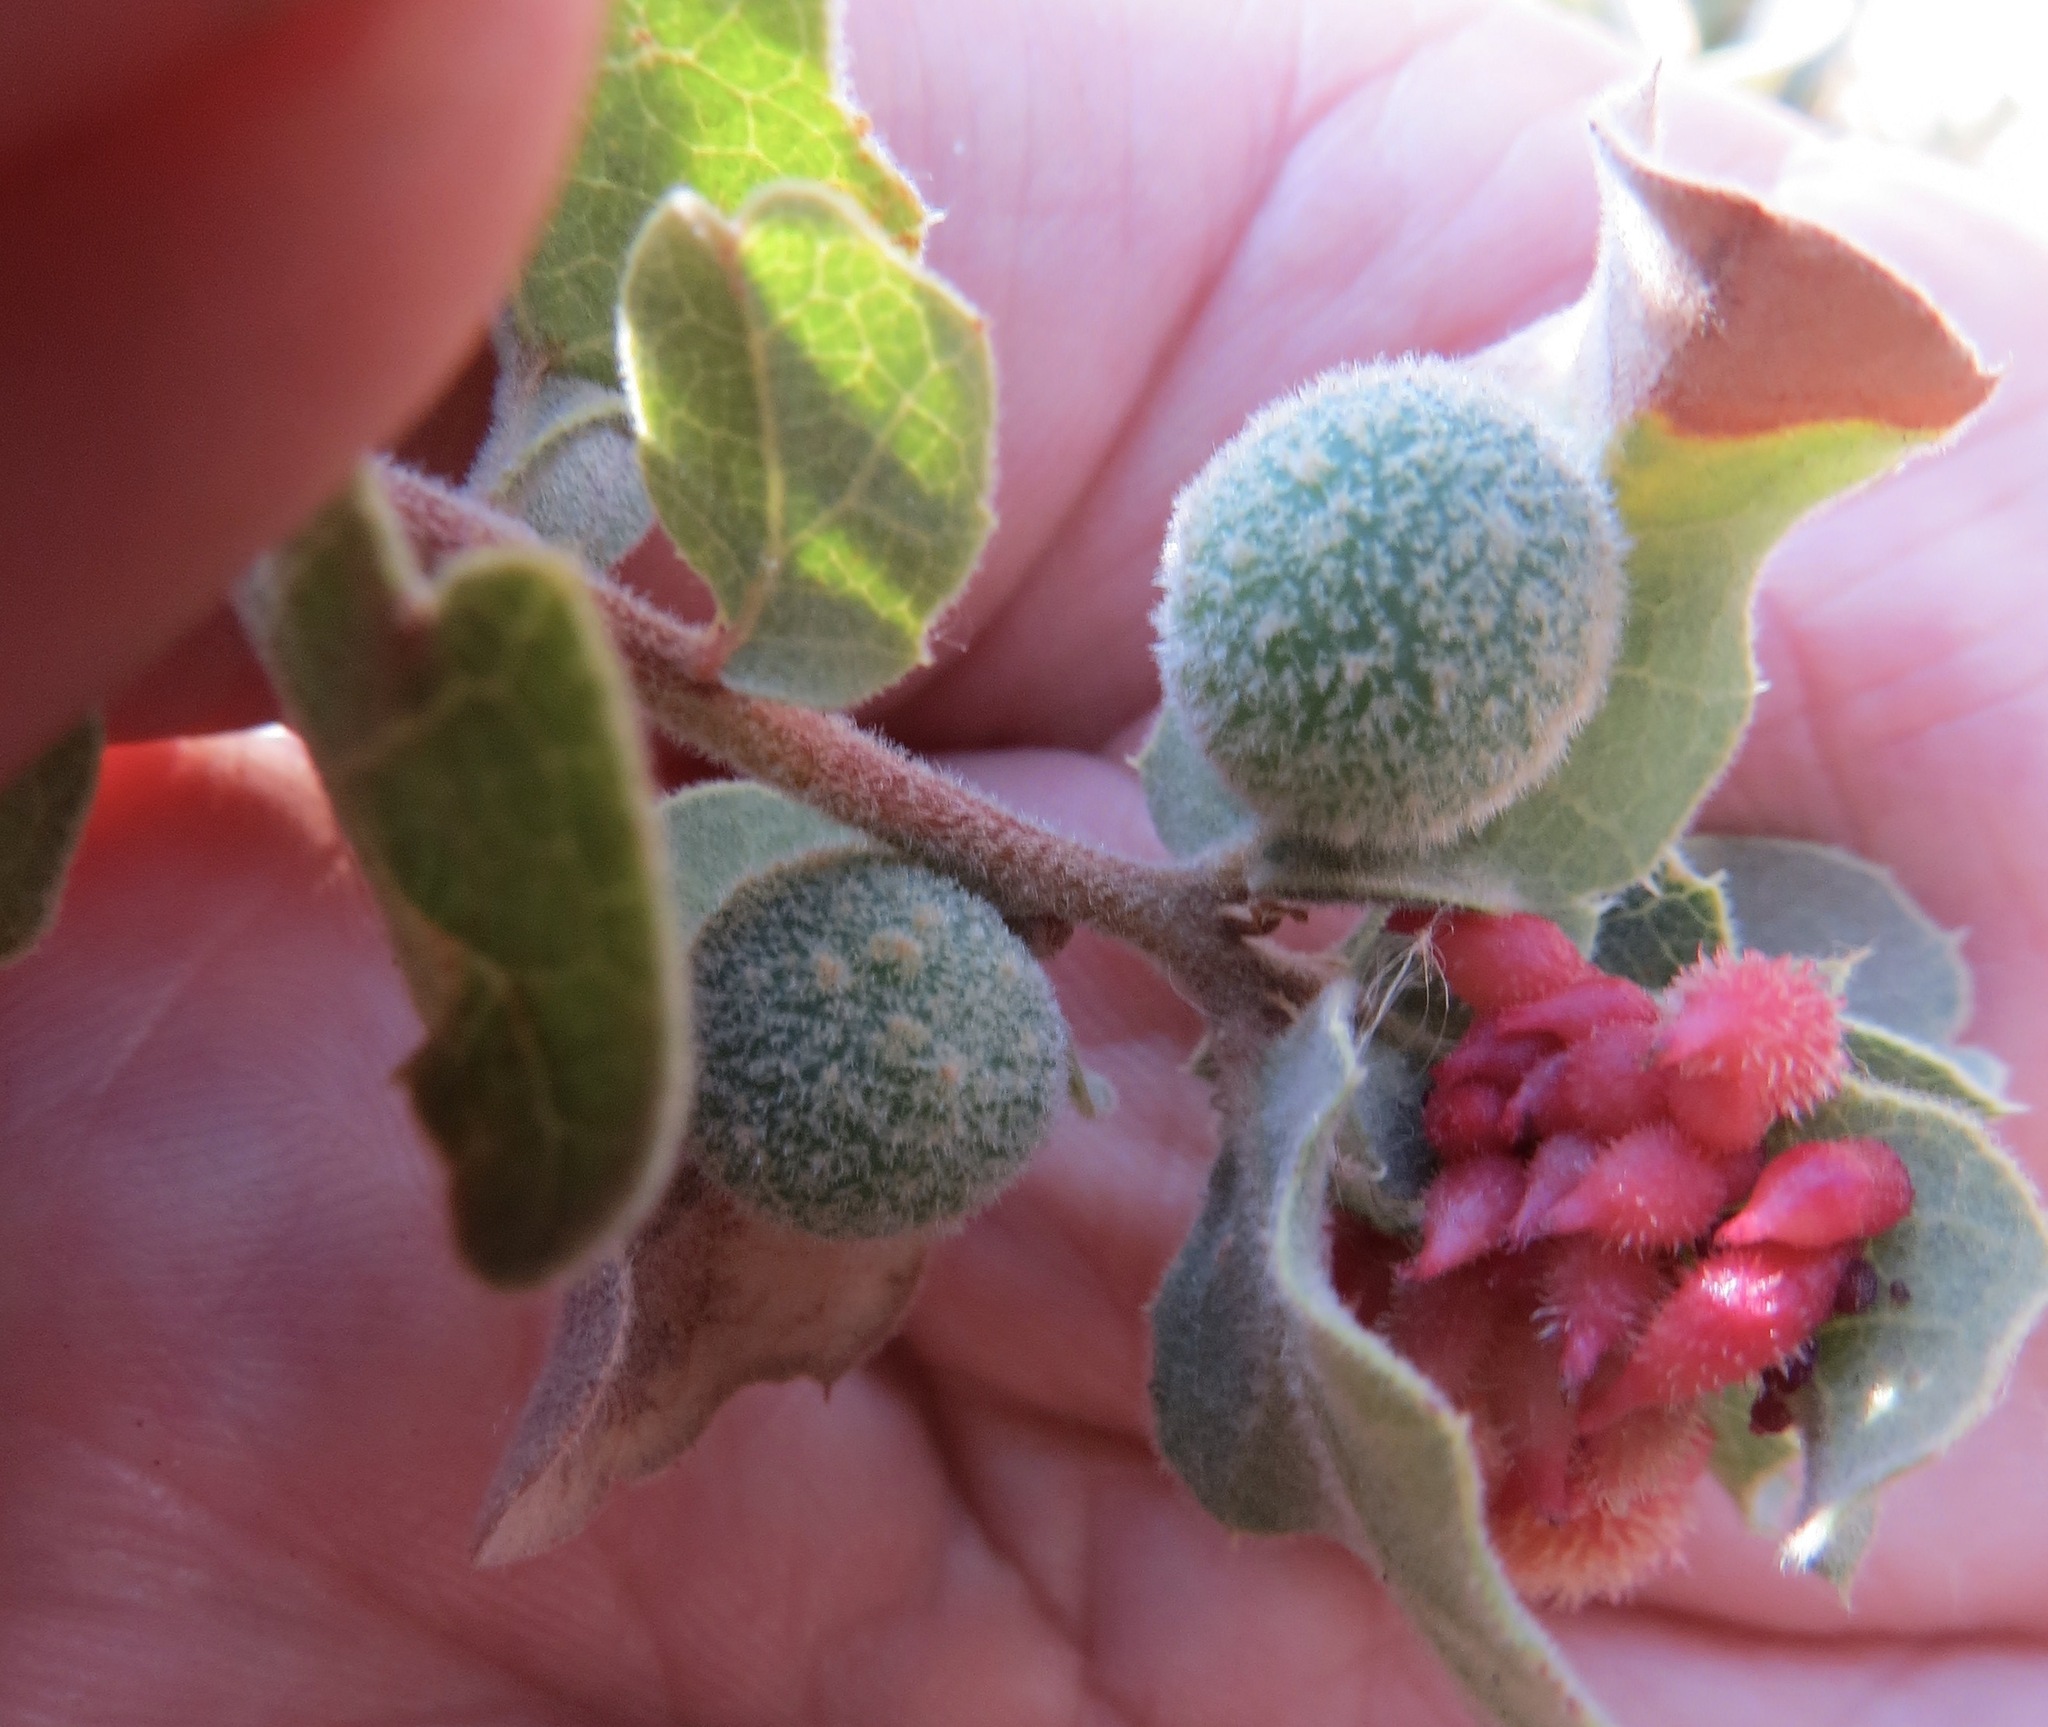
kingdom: Animalia
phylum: Arthropoda
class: Insecta
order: Hymenoptera
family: Cynipidae
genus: Cynips
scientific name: Cynips
